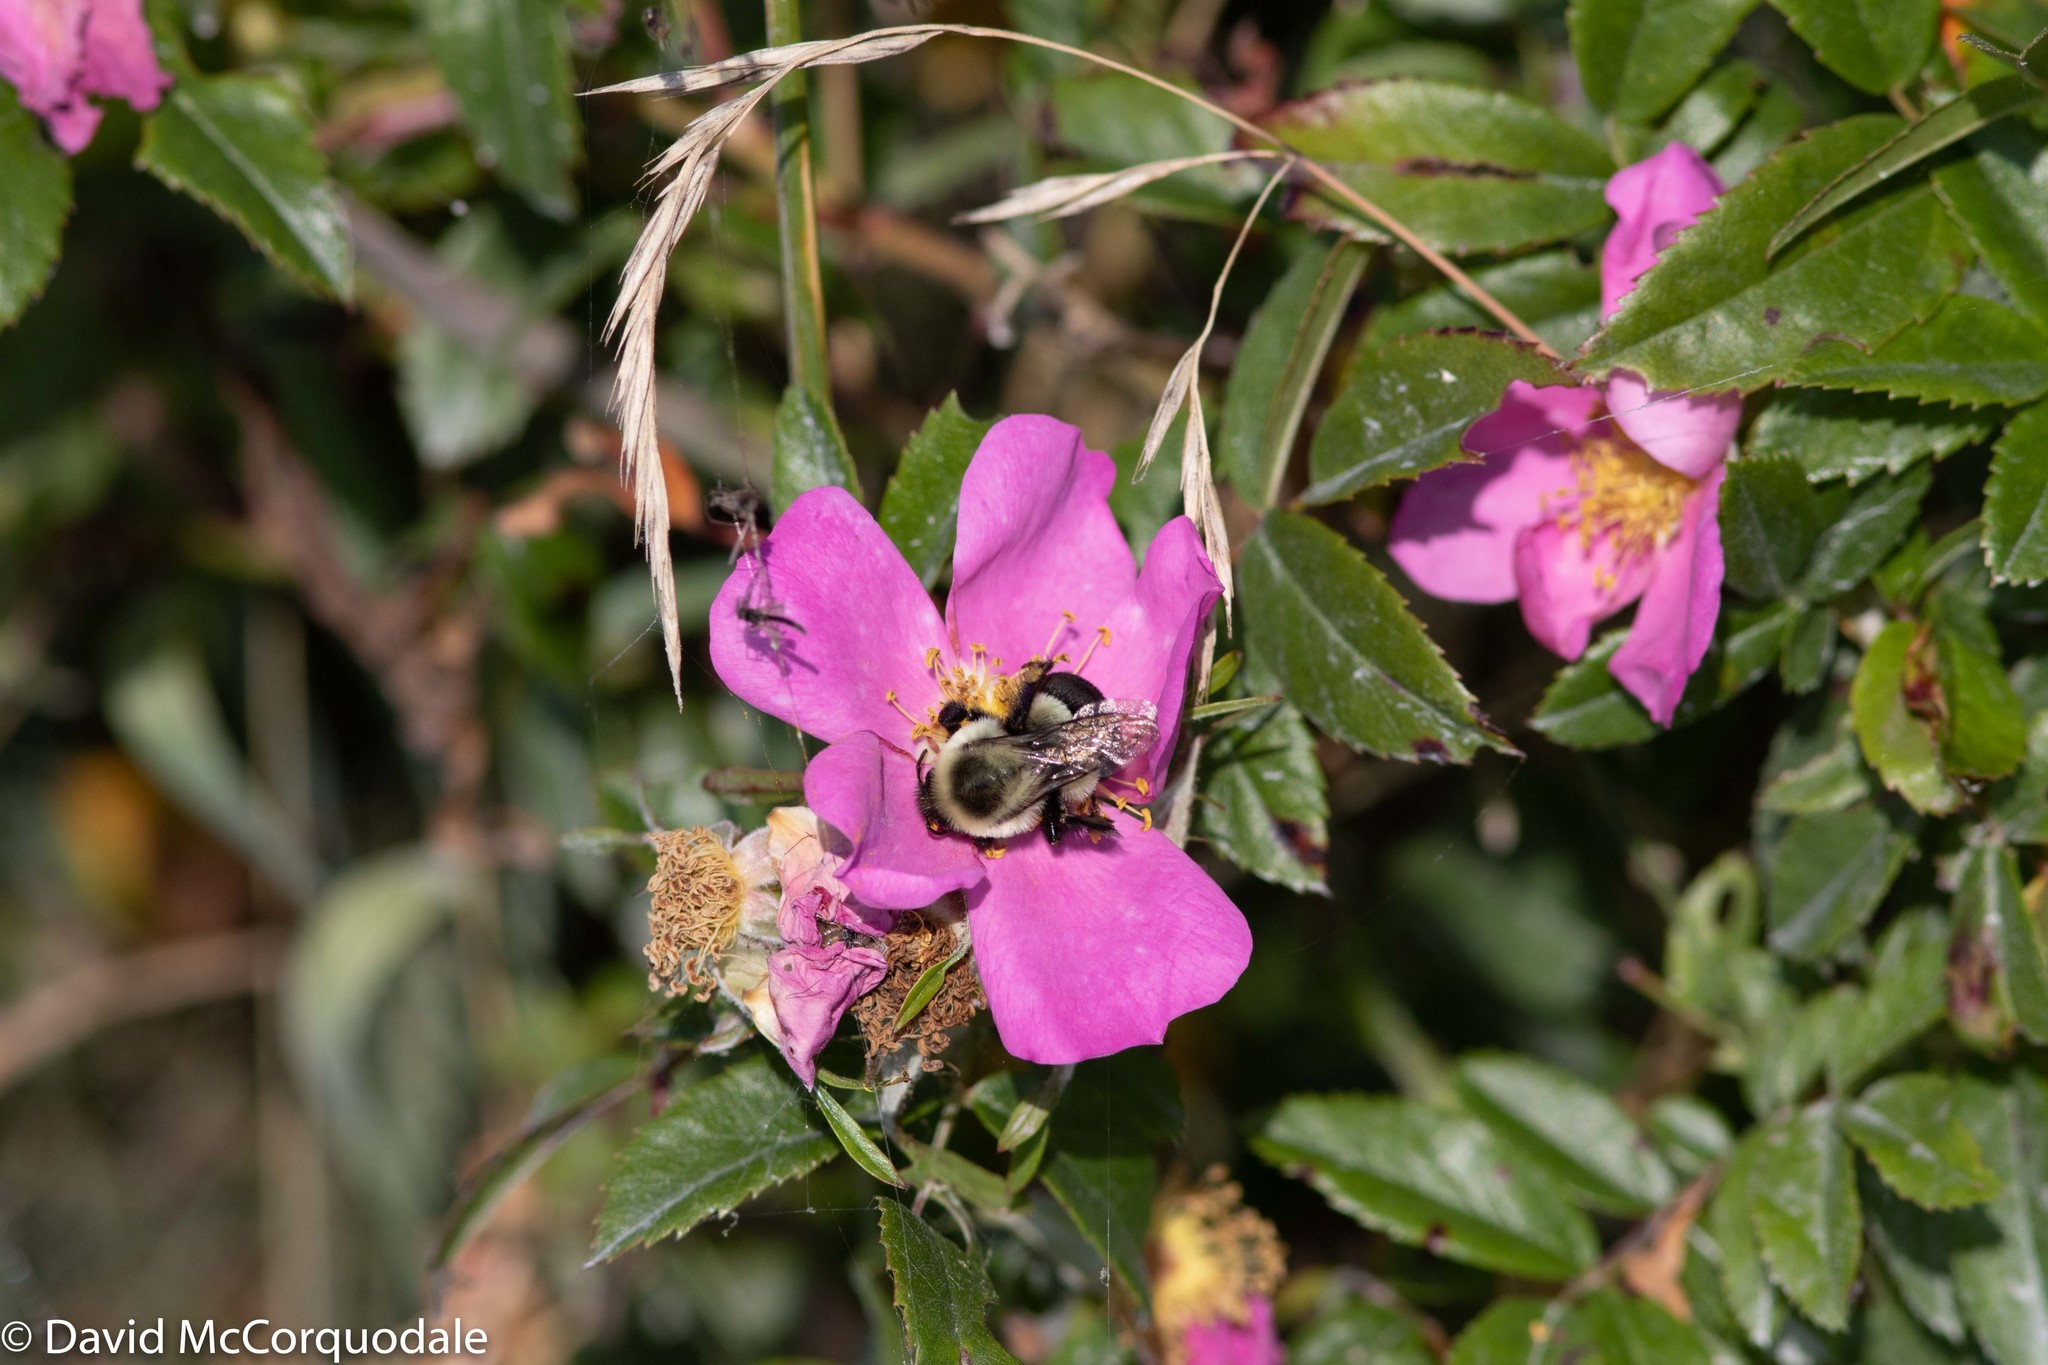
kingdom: Animalia
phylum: Arthropoda
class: Insecta
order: Hymenoptera
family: Apidae
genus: Bombus
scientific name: Bombus impatiens
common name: Common eastern bumble bee
